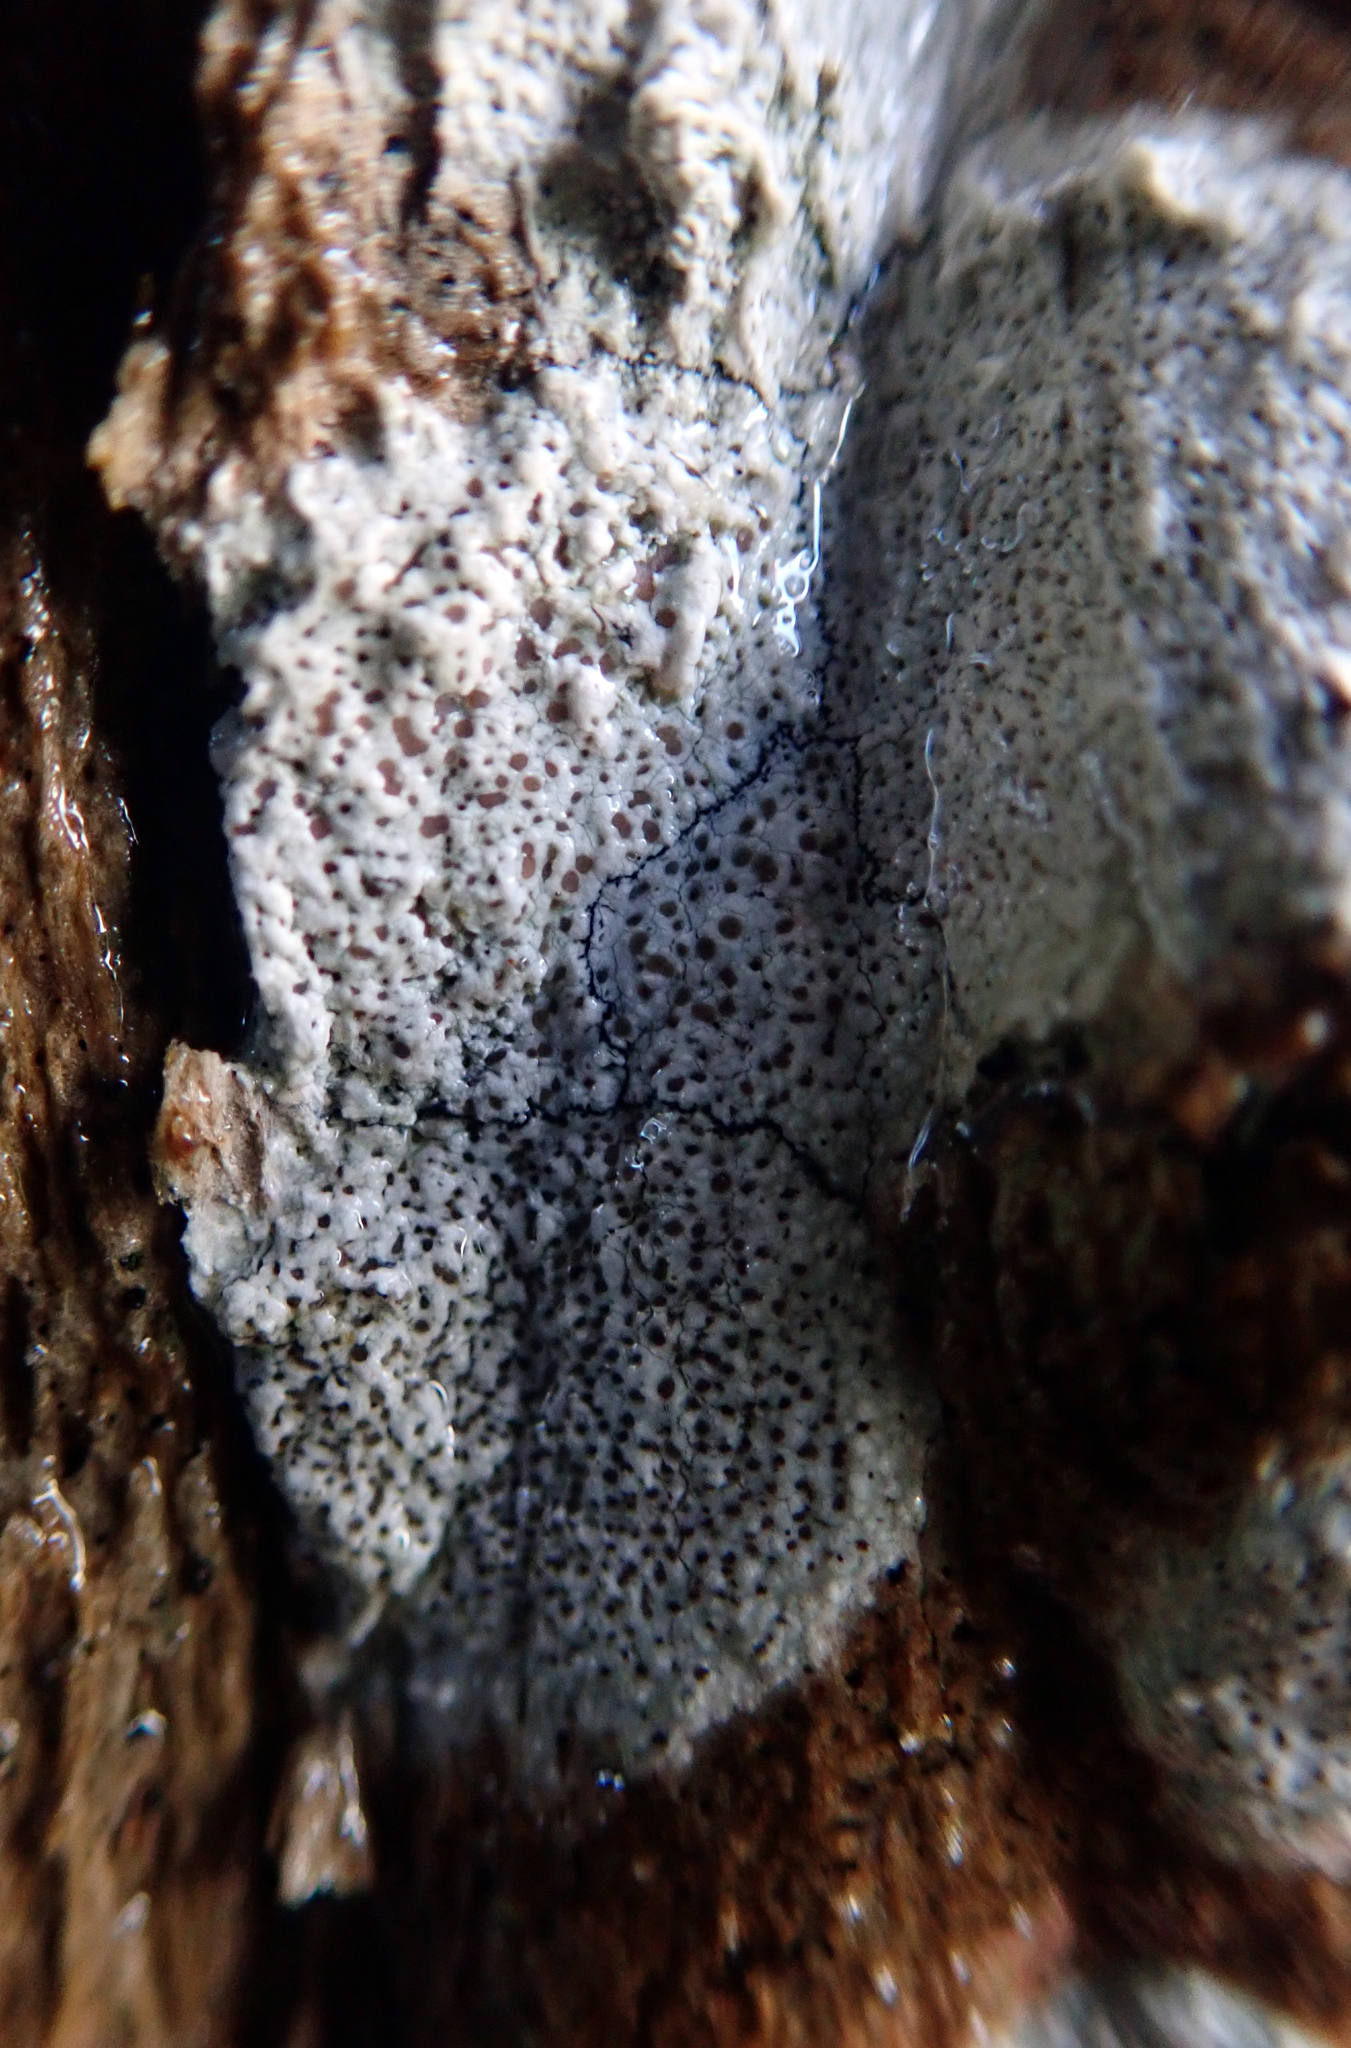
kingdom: Fungi
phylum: Ascomycota
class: Lecanoromycetes
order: Lecanorales
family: Lecanoraceae
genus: Lecanora
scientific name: Lecanora kohu
